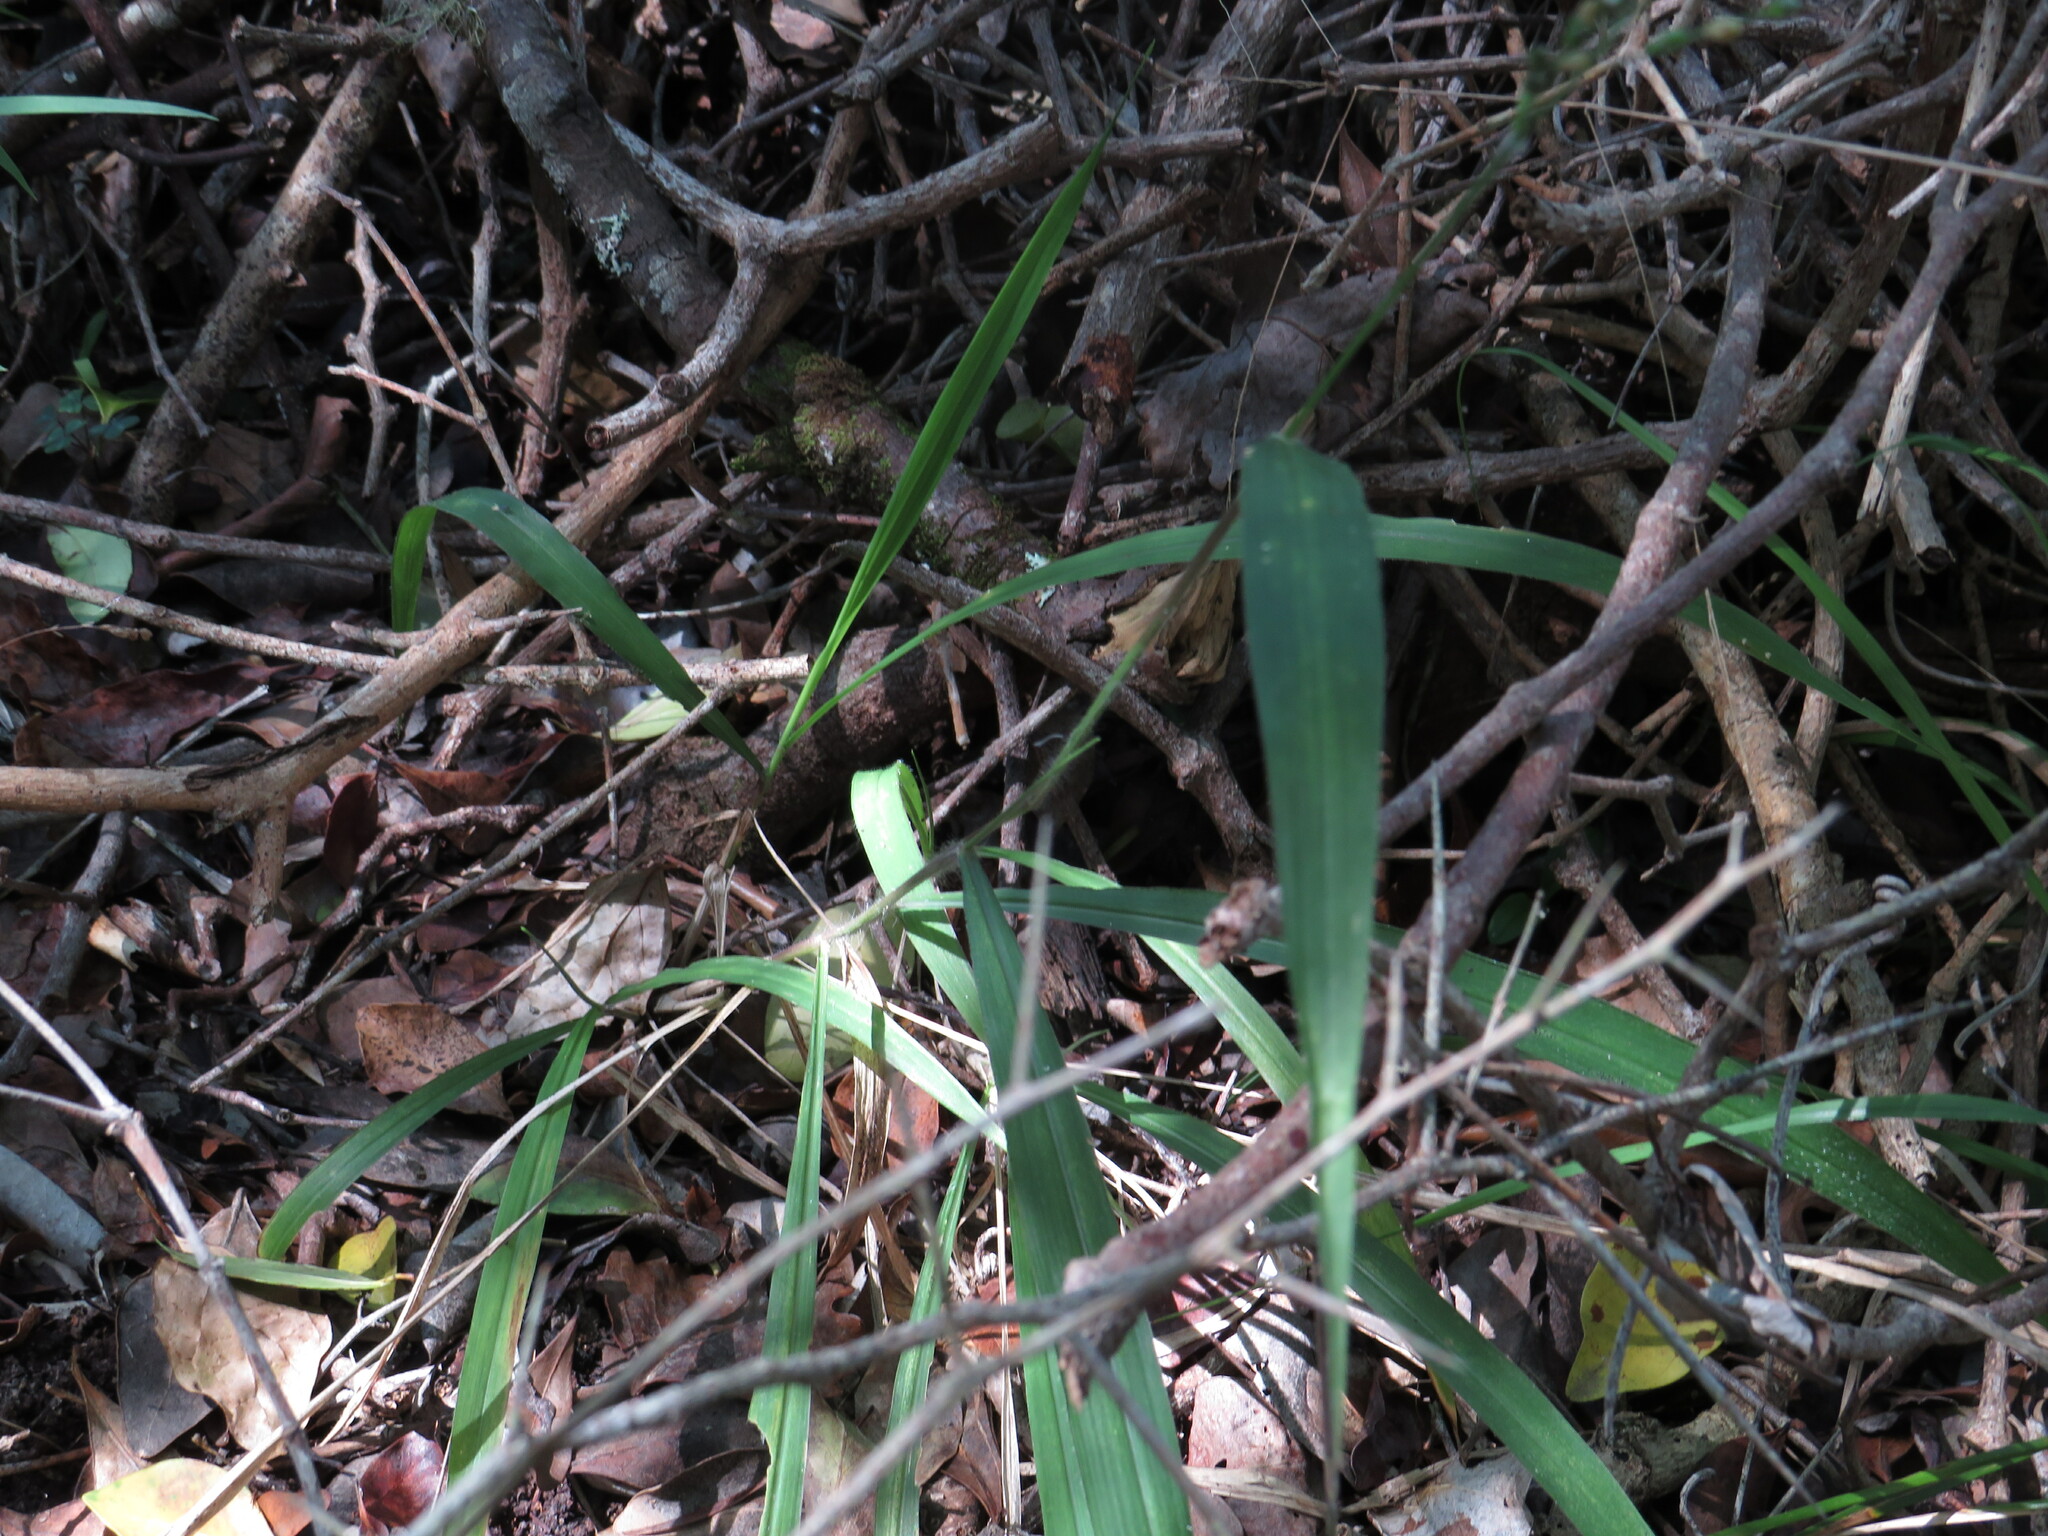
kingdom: Plantae
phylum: Tracheophyta
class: Liliopsida
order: Poales
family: Poaceae
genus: Panicum
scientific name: Panicum deustum
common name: Reed panicum
